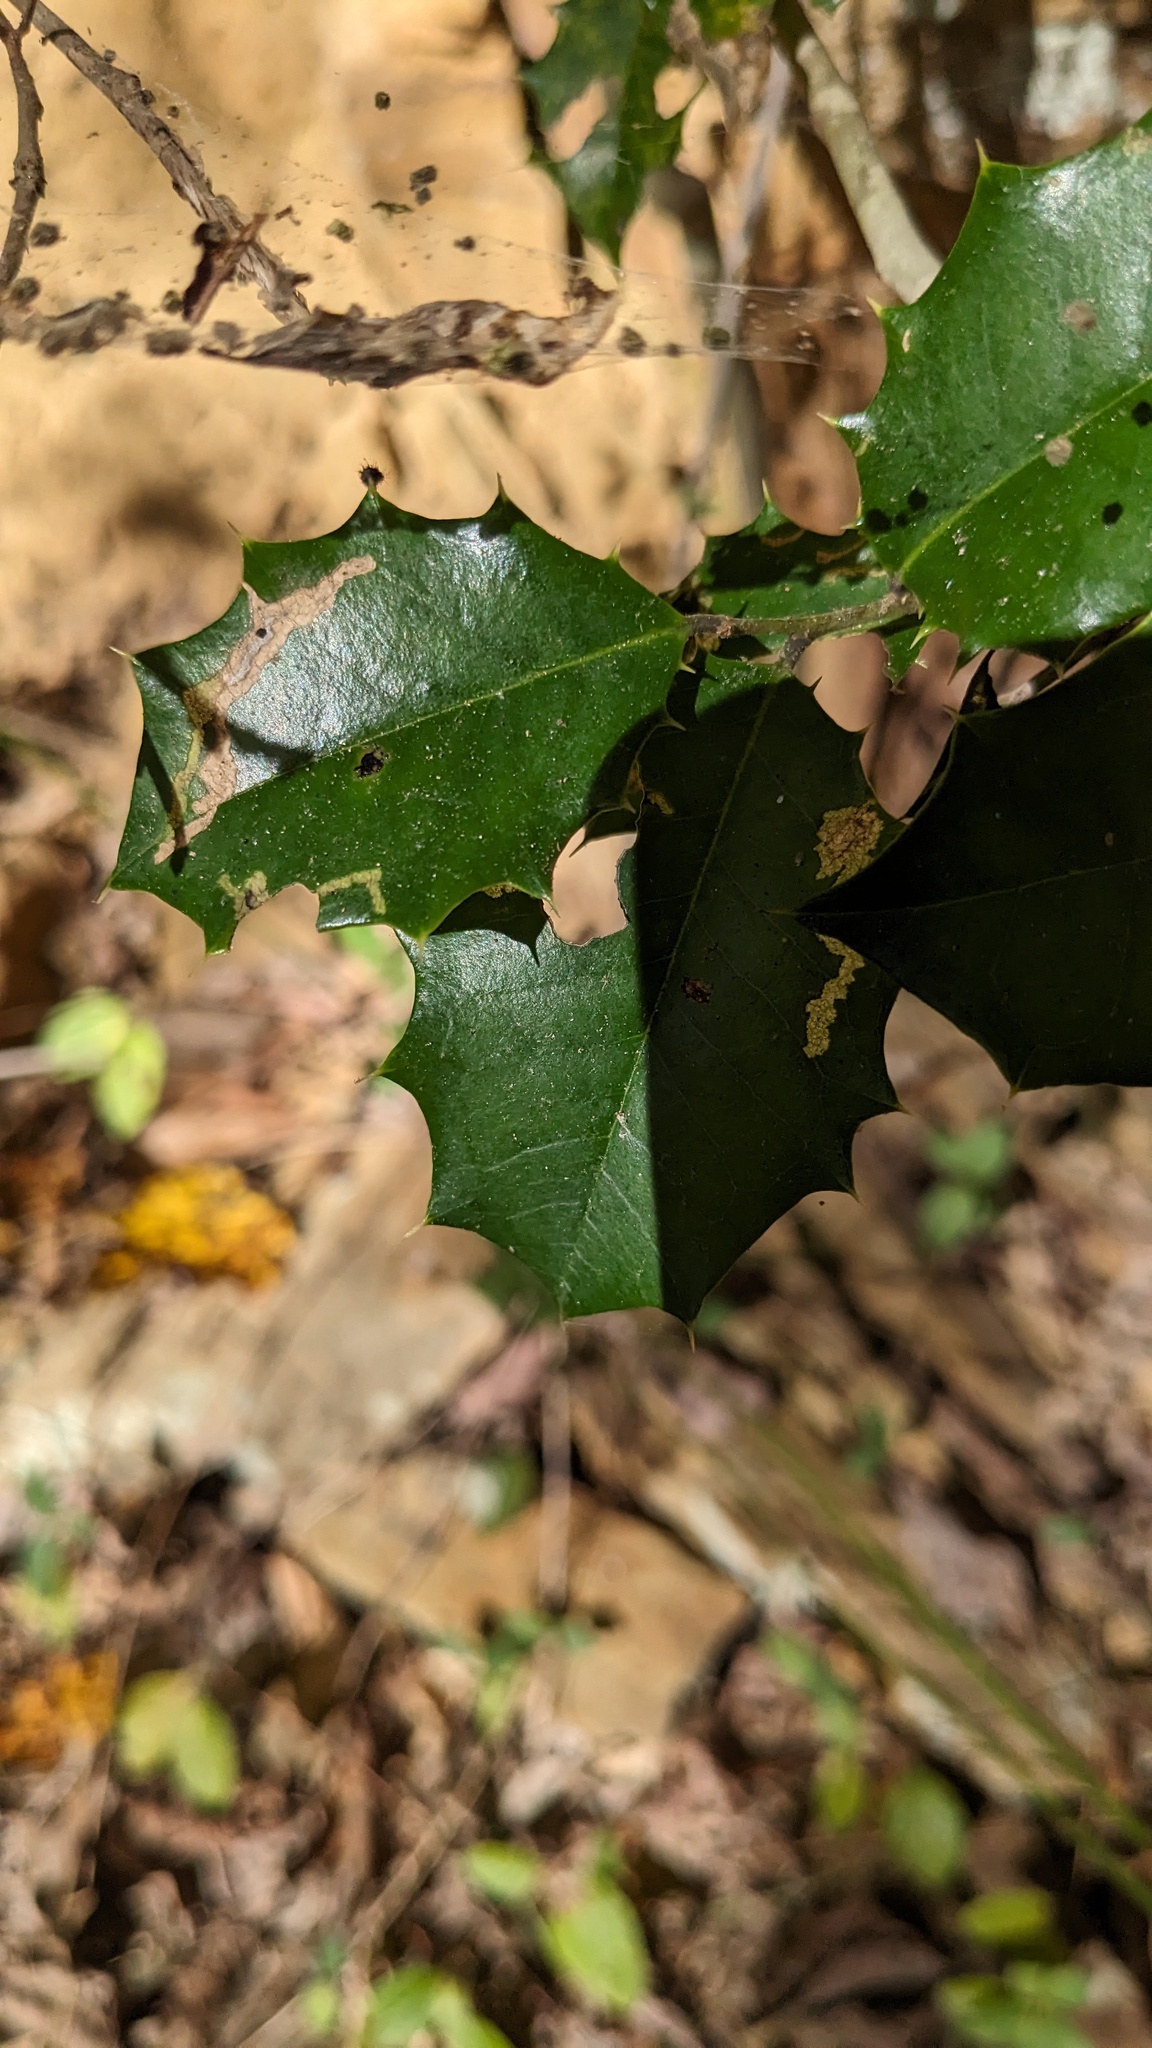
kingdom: Plantae
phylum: Tracheophyta
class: Magnoliopsida
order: Aquifoliales
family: Aquifoliaceae
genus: Ilex
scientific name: Ilex opaca
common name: American holly
